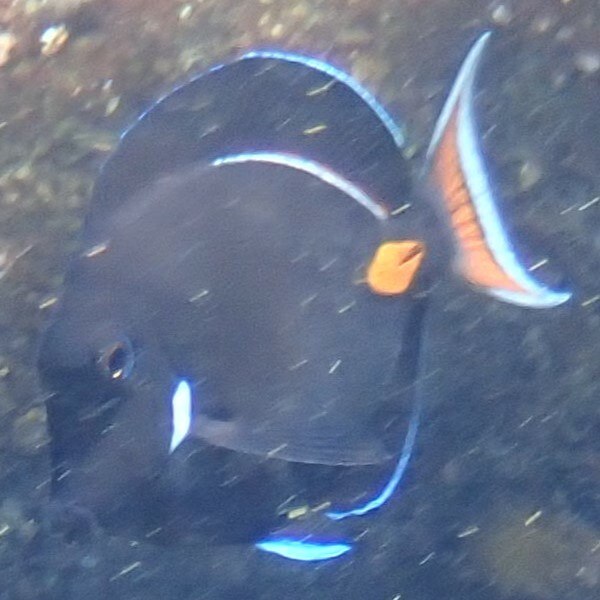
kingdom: Animalia
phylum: Chordata
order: Perciformes
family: Acanthuridae
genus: Acanthurus
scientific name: Acanthurus achilles
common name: Achilles tang
